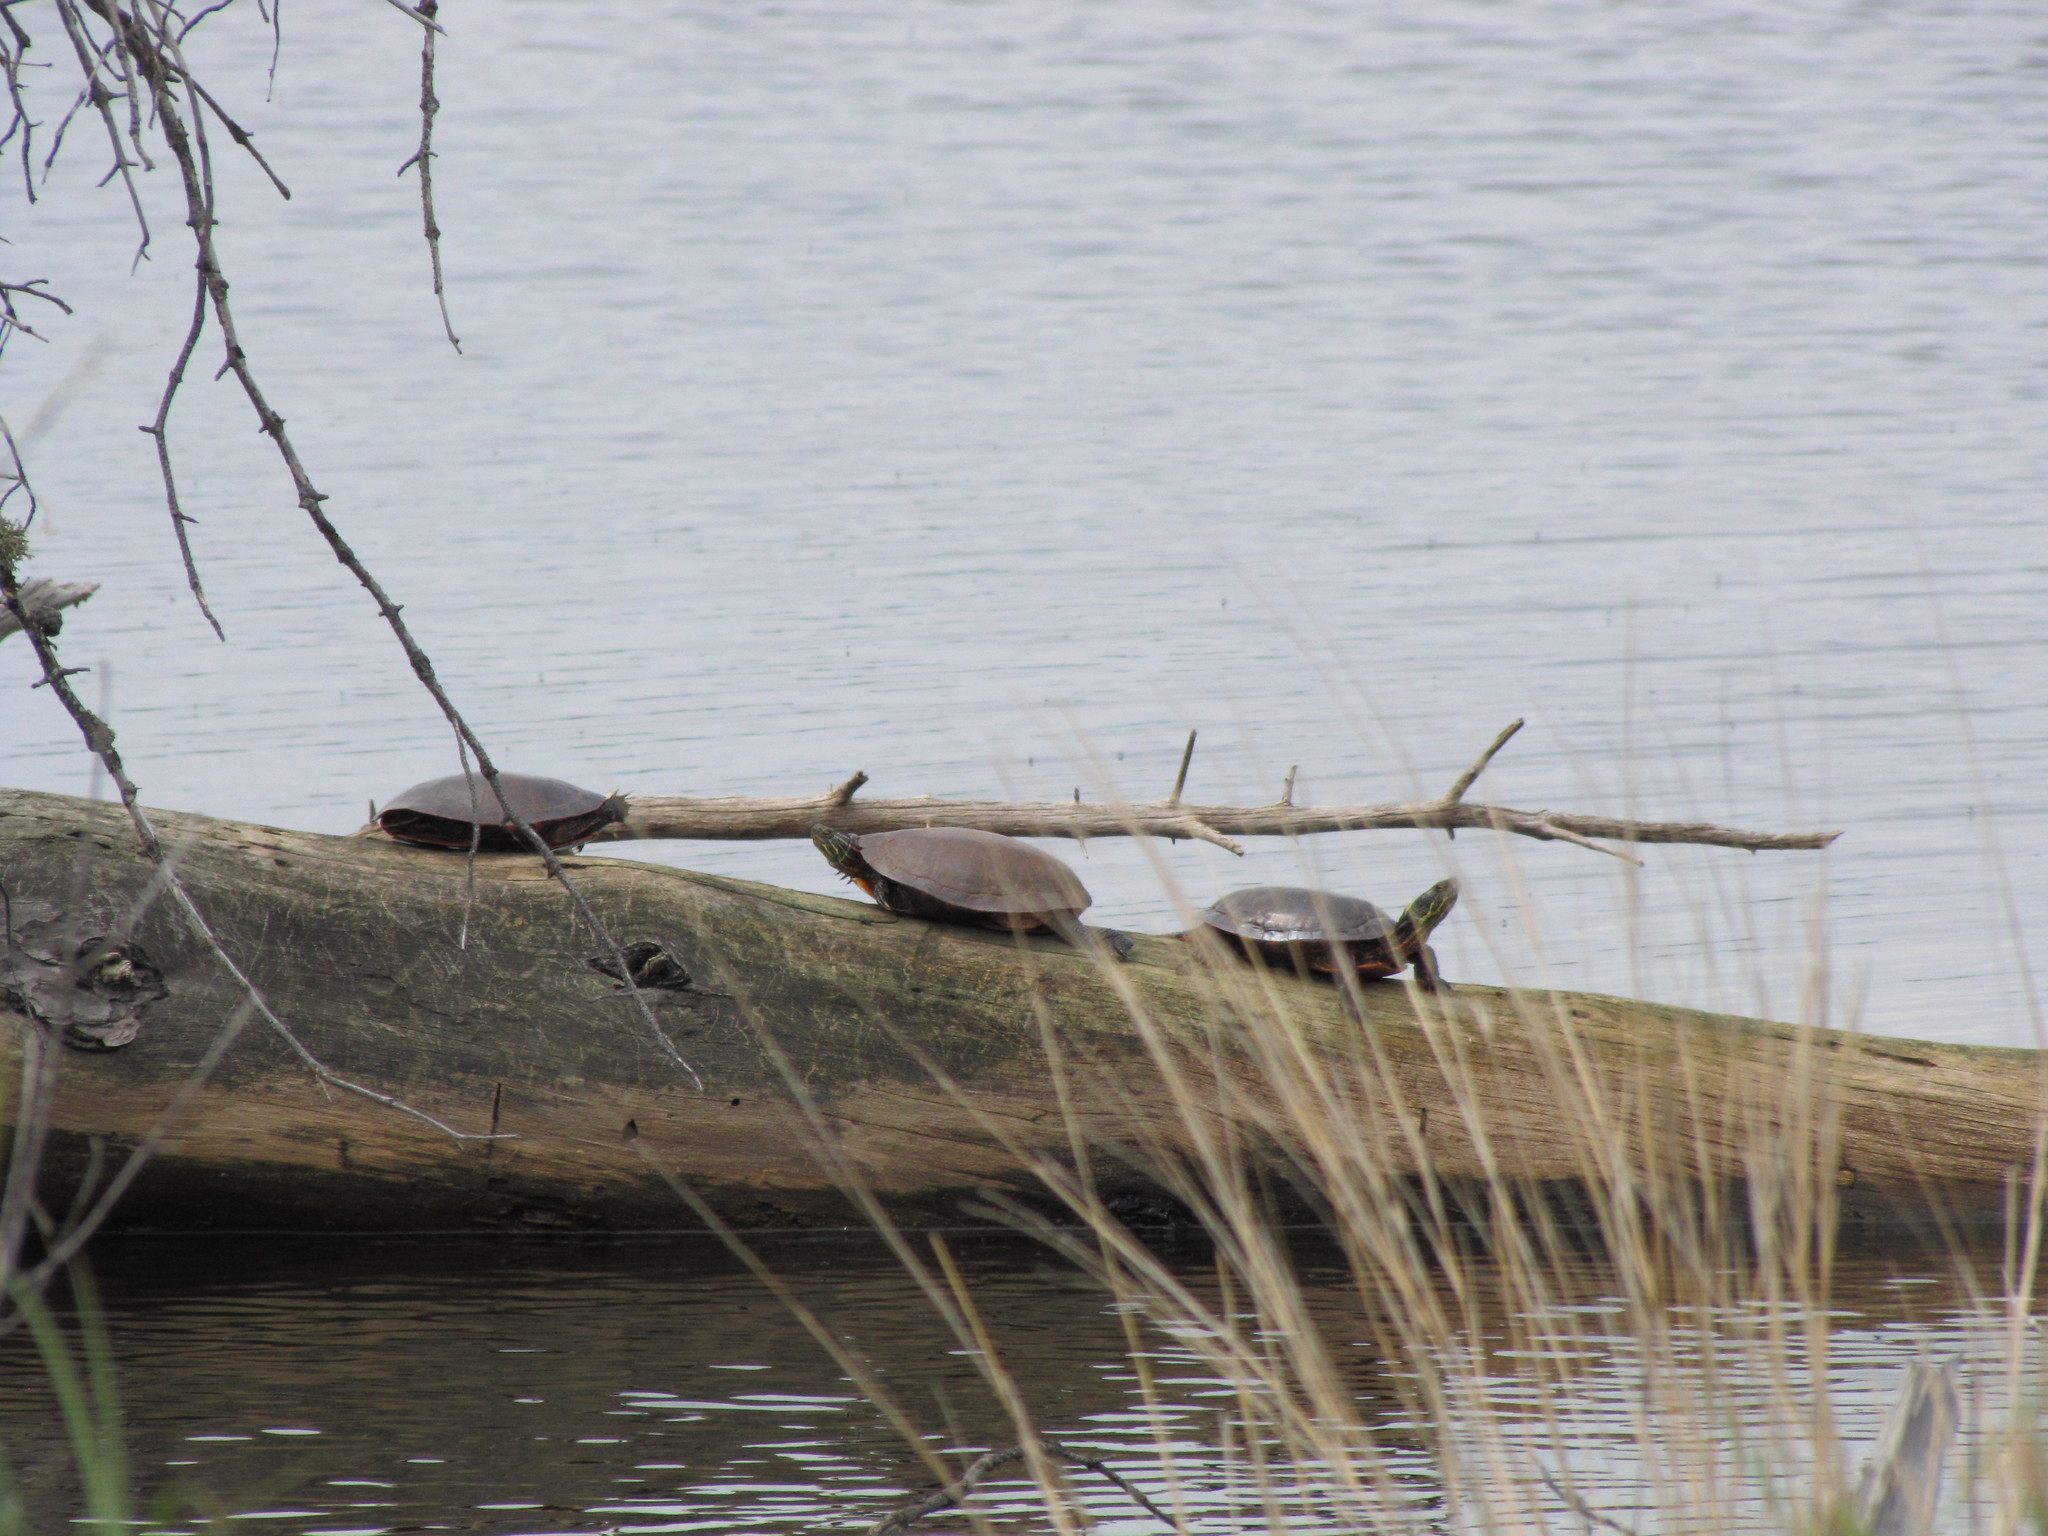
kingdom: Animalia
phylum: Chordata
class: Testudines
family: Emydidae
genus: Chrysemys
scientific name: Chrysemys picta
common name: Painted turtle
